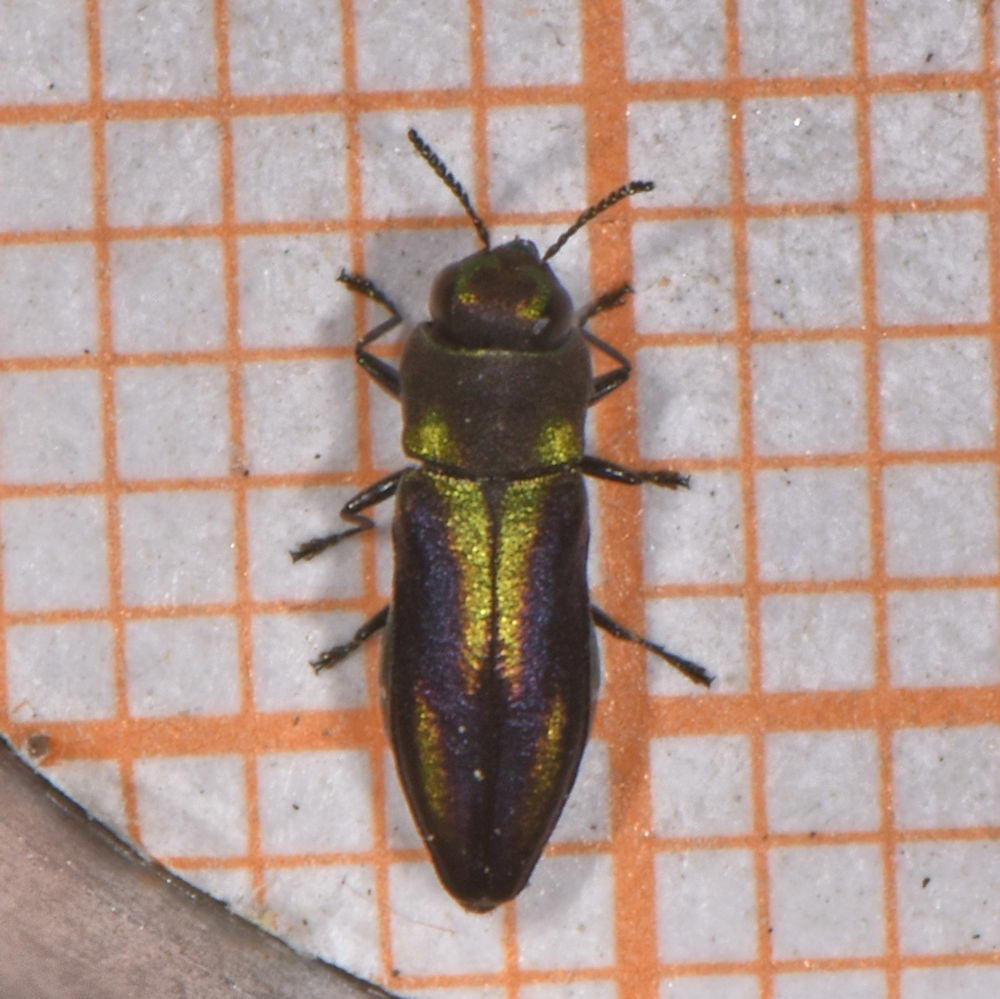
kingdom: Animalia
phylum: Arthropoda
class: Insecta
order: Coleoptera
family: Buprestidae
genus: Anthaxia
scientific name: Anthaxia quercata
